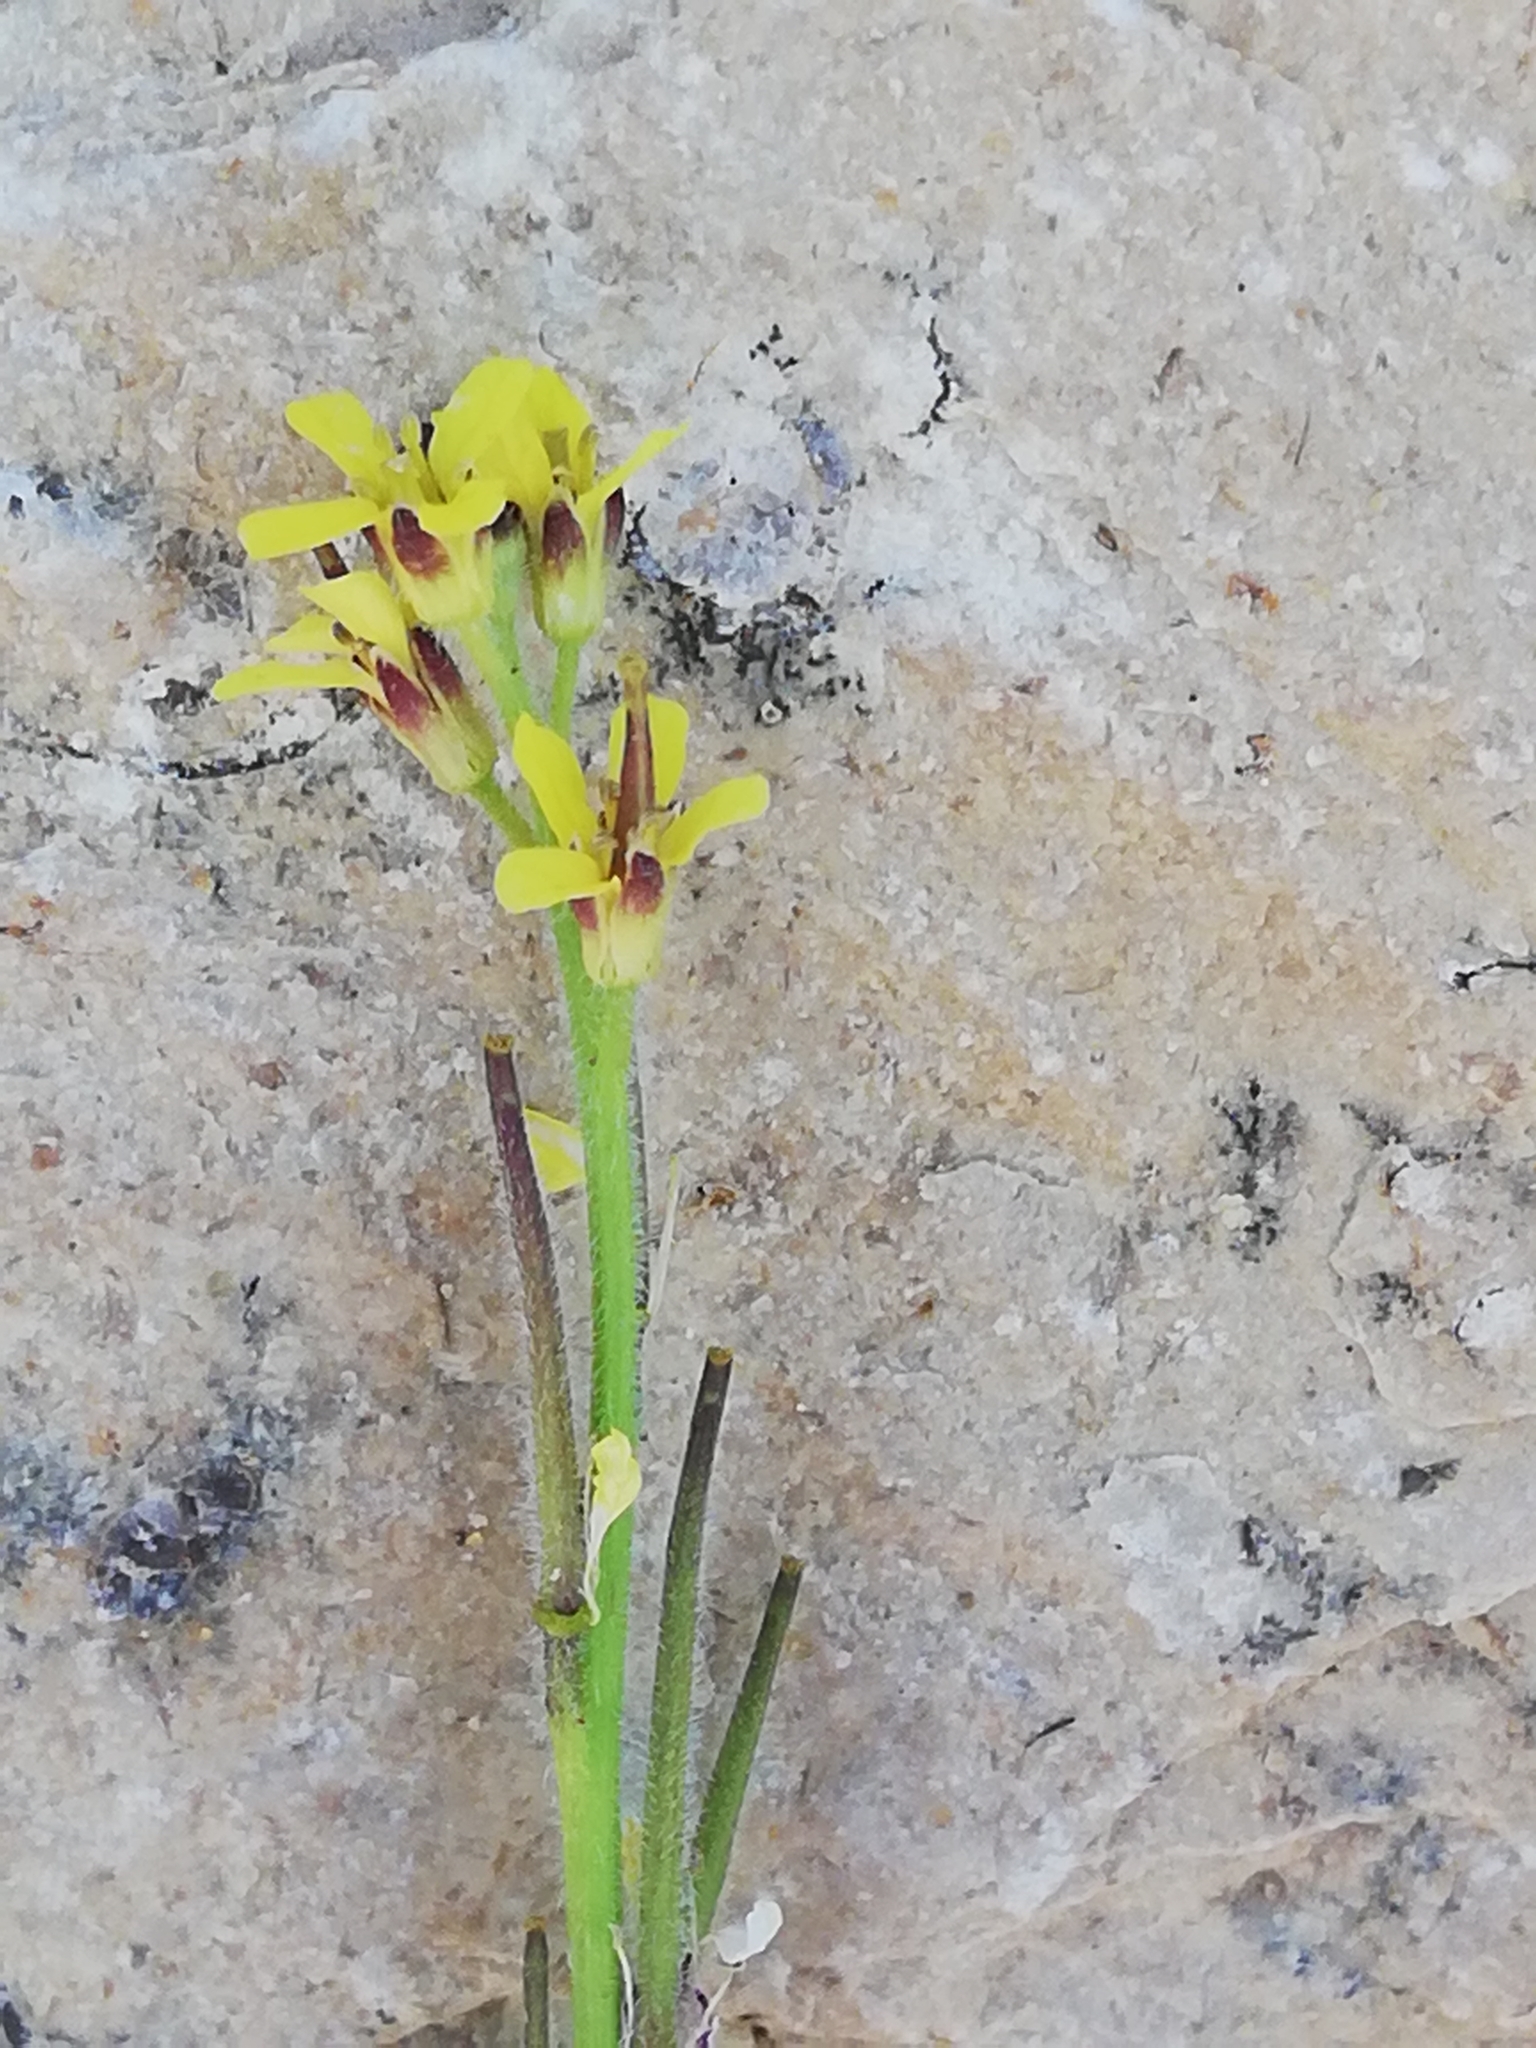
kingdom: Plantae
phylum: Tracheophyta
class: Magnoliopsida
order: Brassicales
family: Brassicaceae
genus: Sisymbrium
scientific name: Sisymbrium officinale
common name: Hedge mustard
